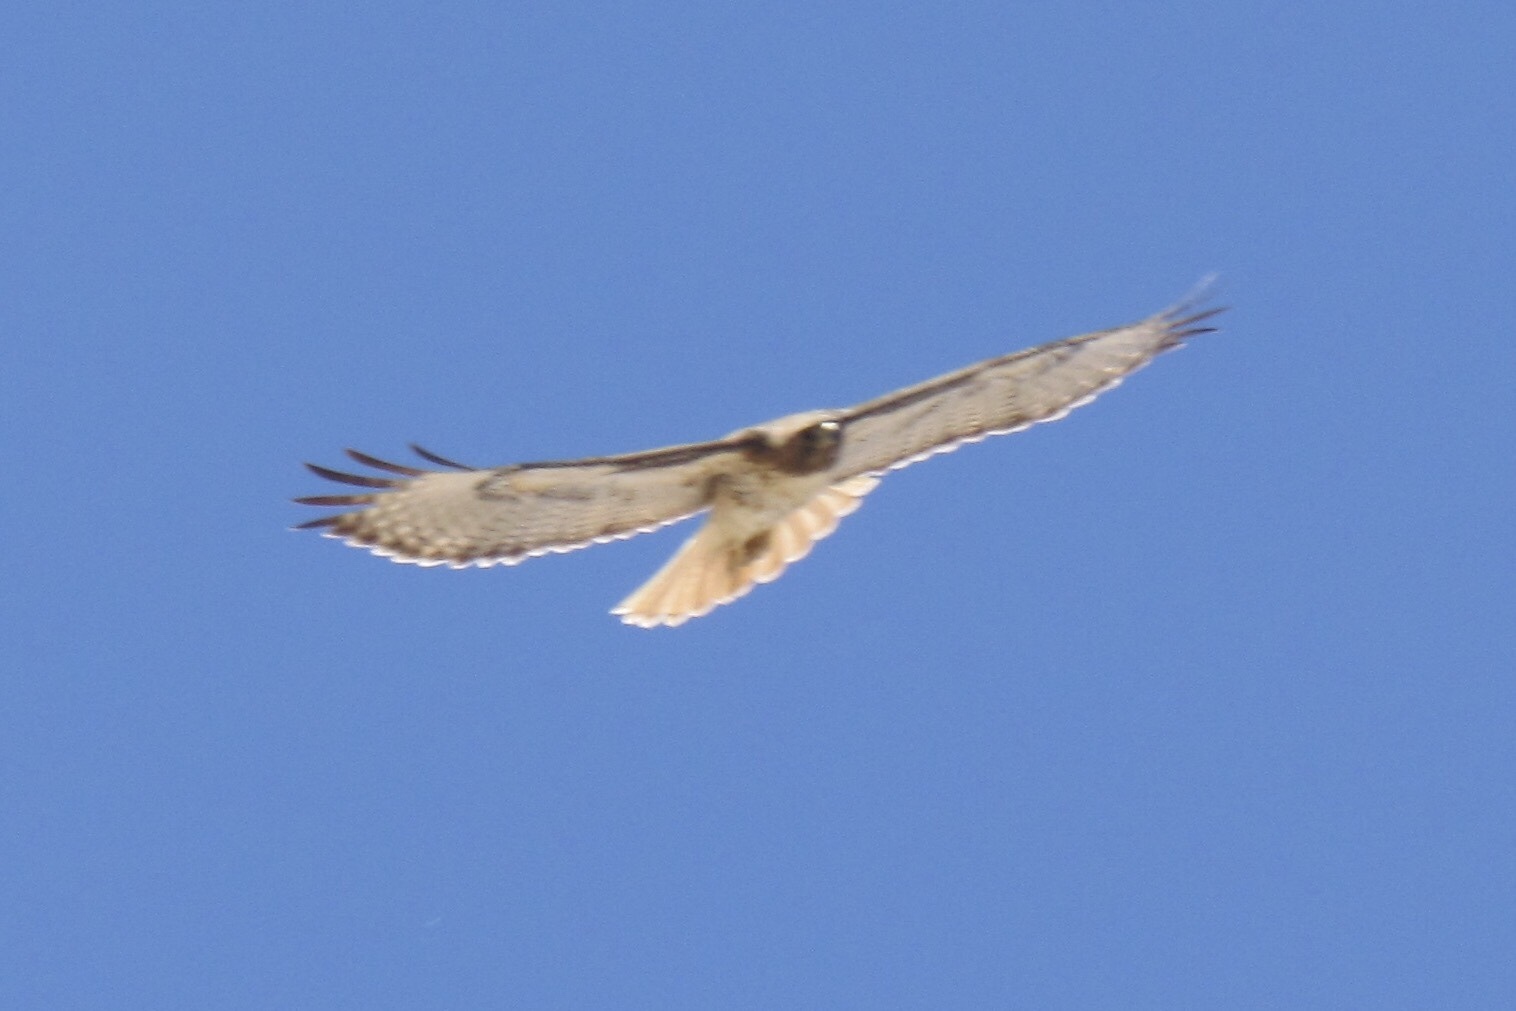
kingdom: Animalia
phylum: Chordata
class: Aves
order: Accipitriformes
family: Accipitridae
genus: Buteo
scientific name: Buteo jamaicensis
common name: Red-tailed hawk
